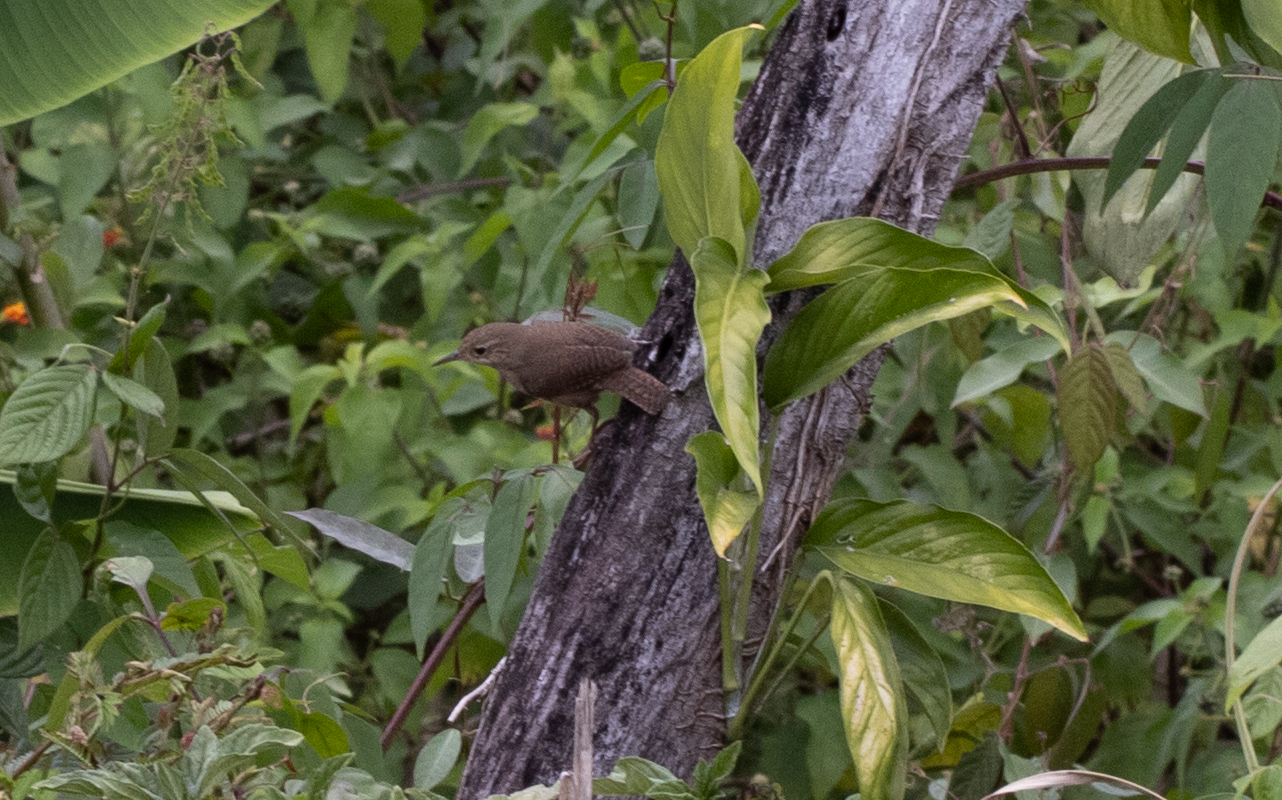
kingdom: Animalia
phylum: Chordata
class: Aves
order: Passeriformes
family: Troglodytidae
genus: Troglodytes
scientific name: Troglodytes aedon
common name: House wren
